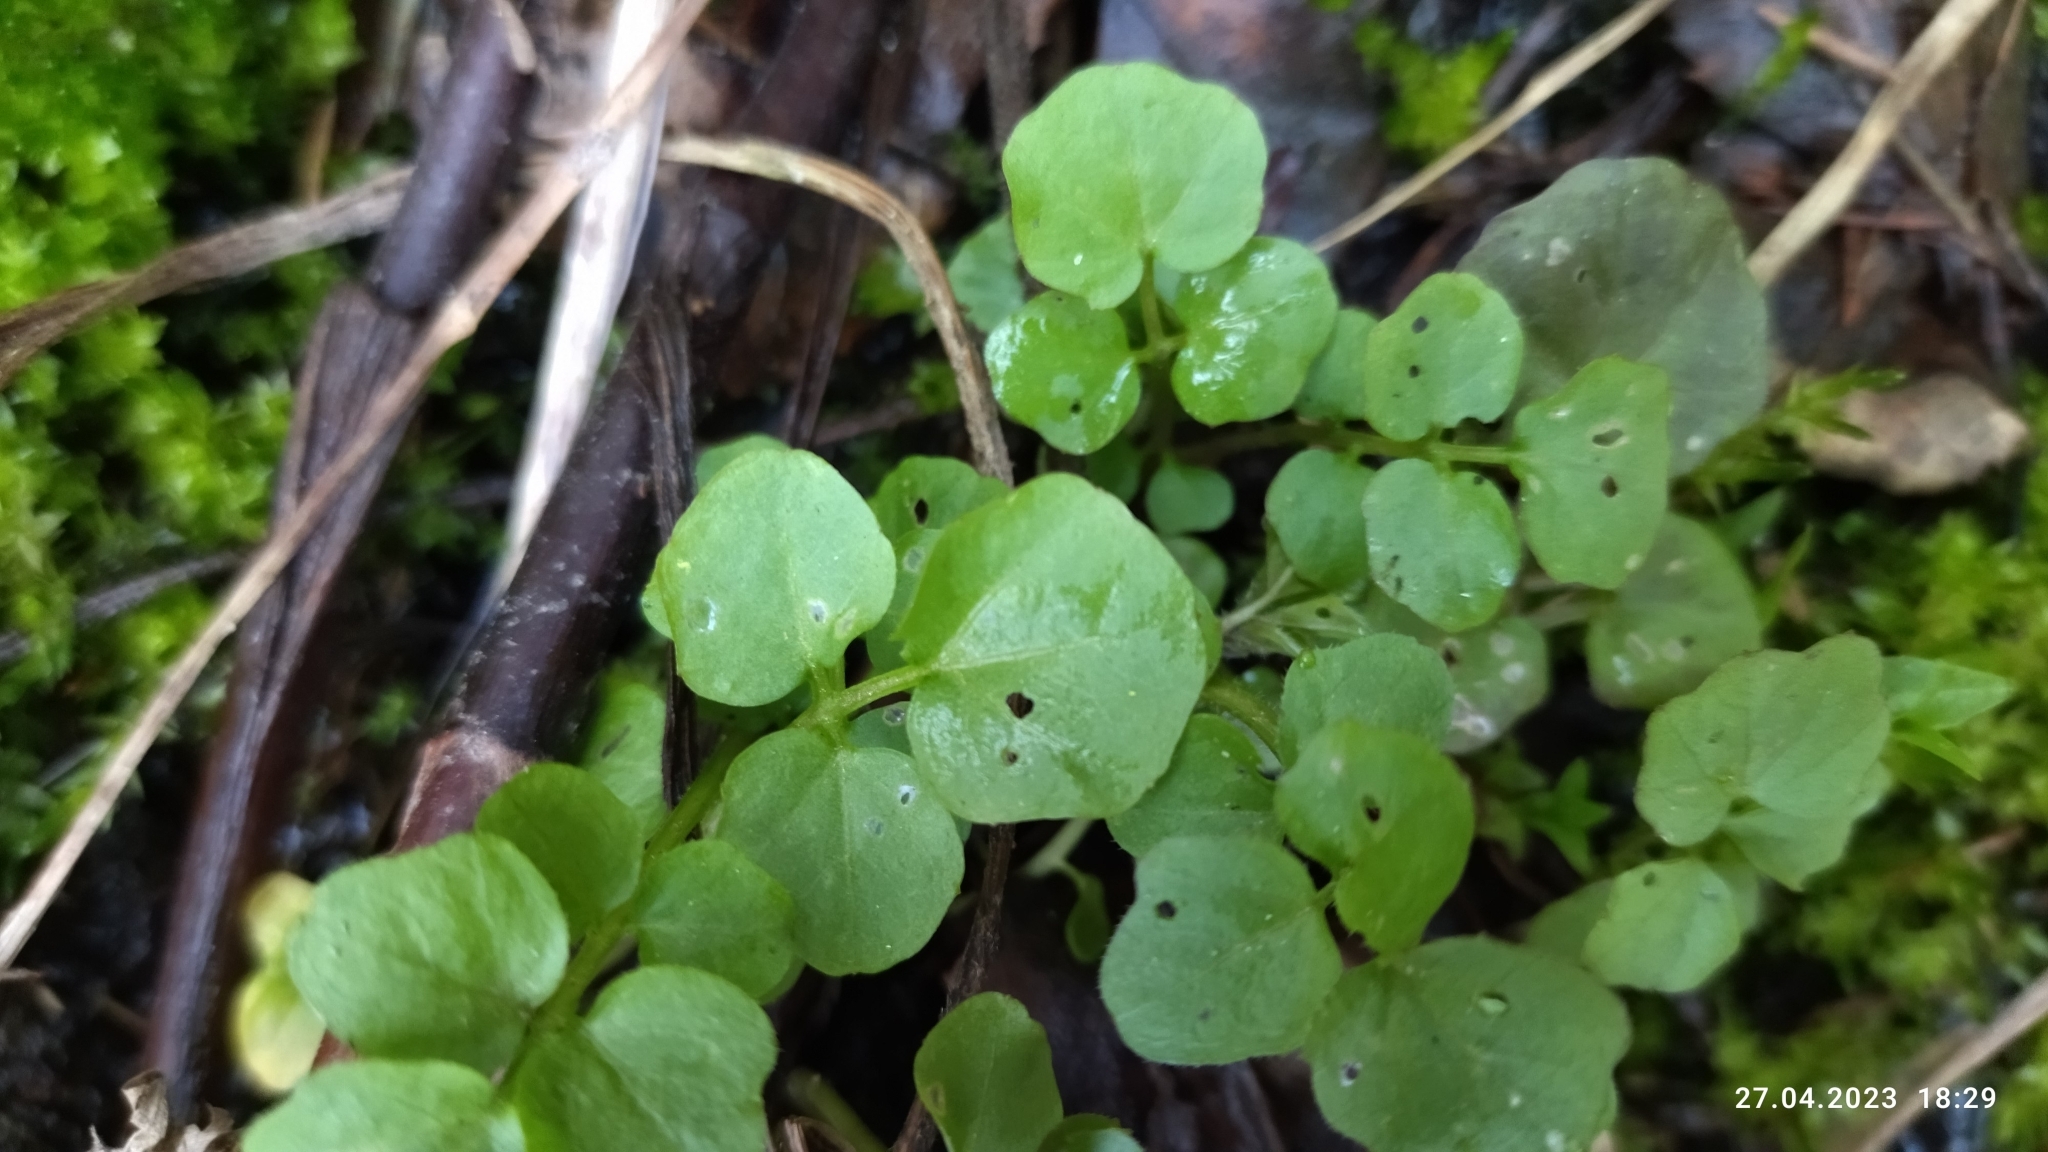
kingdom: Plantae
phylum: Tracheophyta
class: Magnoliopsida
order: Brassicales
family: Brassicaceae
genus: Cardamine
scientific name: Cardamine amara
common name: Large bitter-cress
